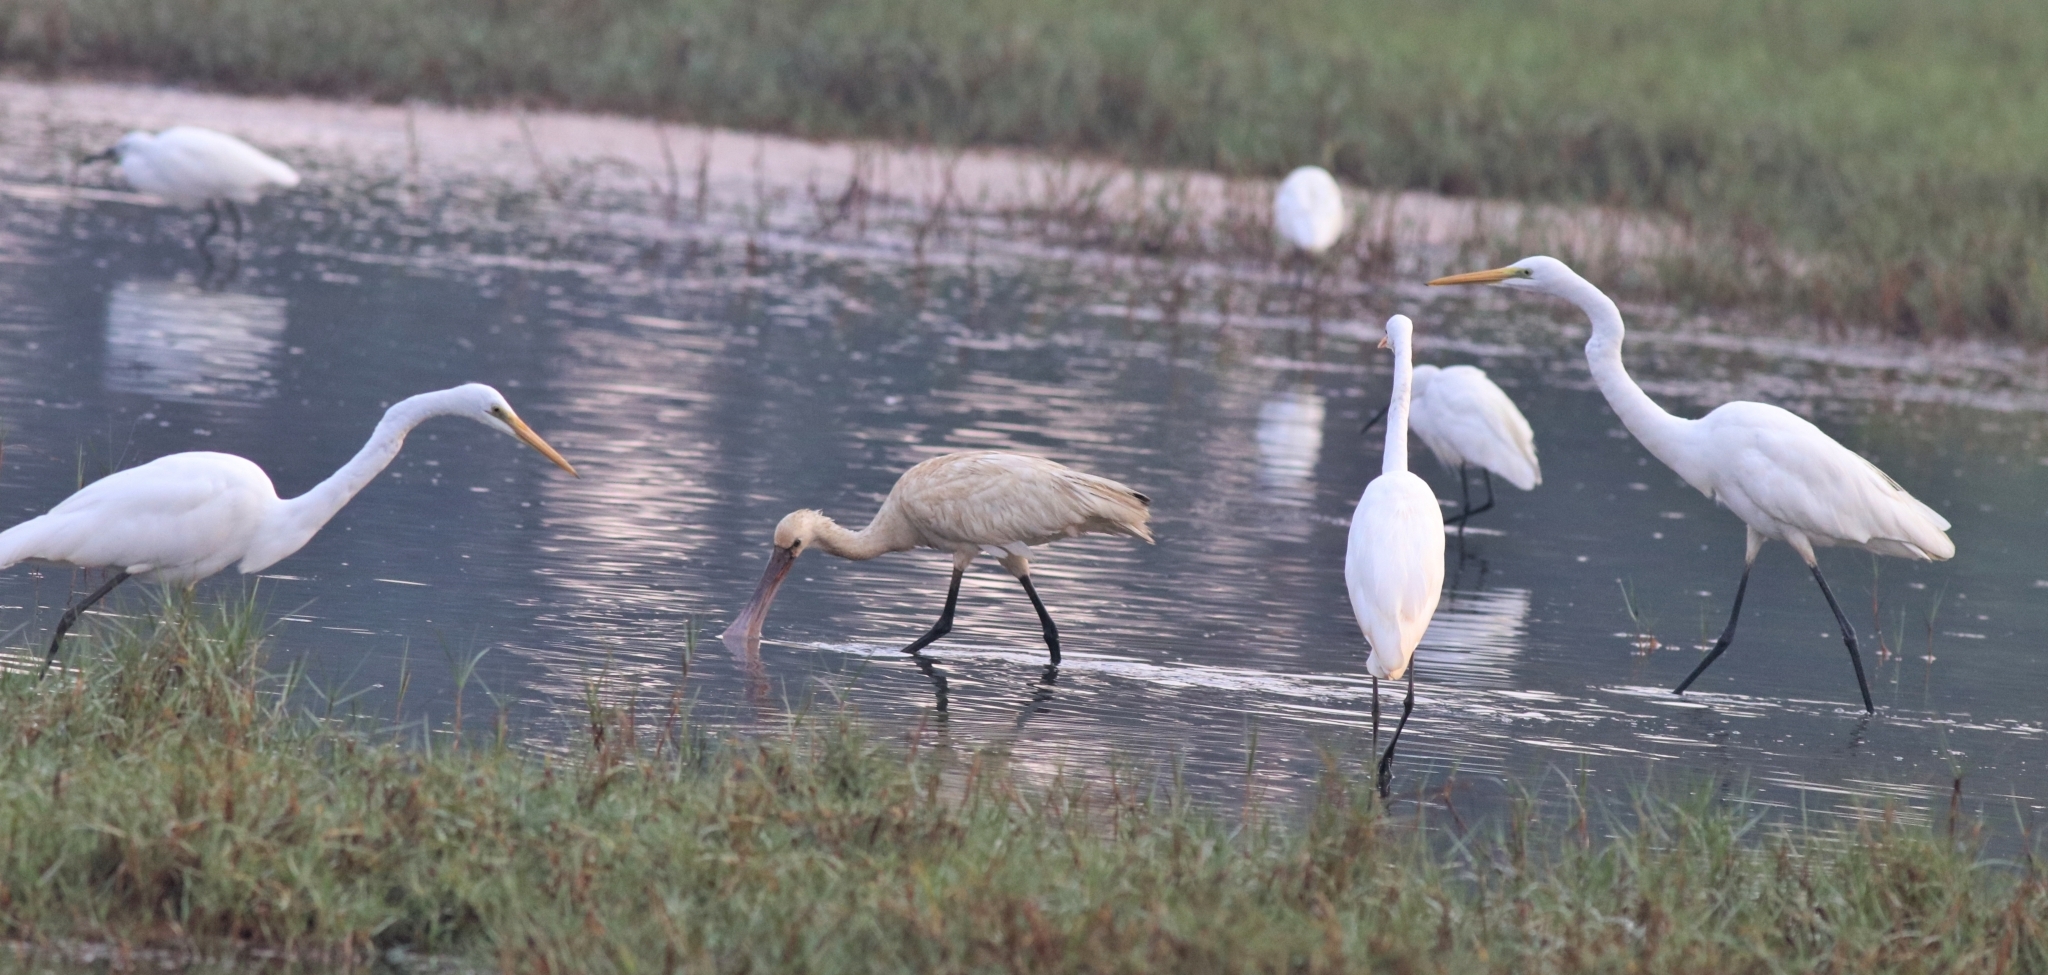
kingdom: Animalia
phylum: Chordata
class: Aves
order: Pelecaniformes
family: Ardeidae
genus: Ardea
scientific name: Ardea alba
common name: Great egret
